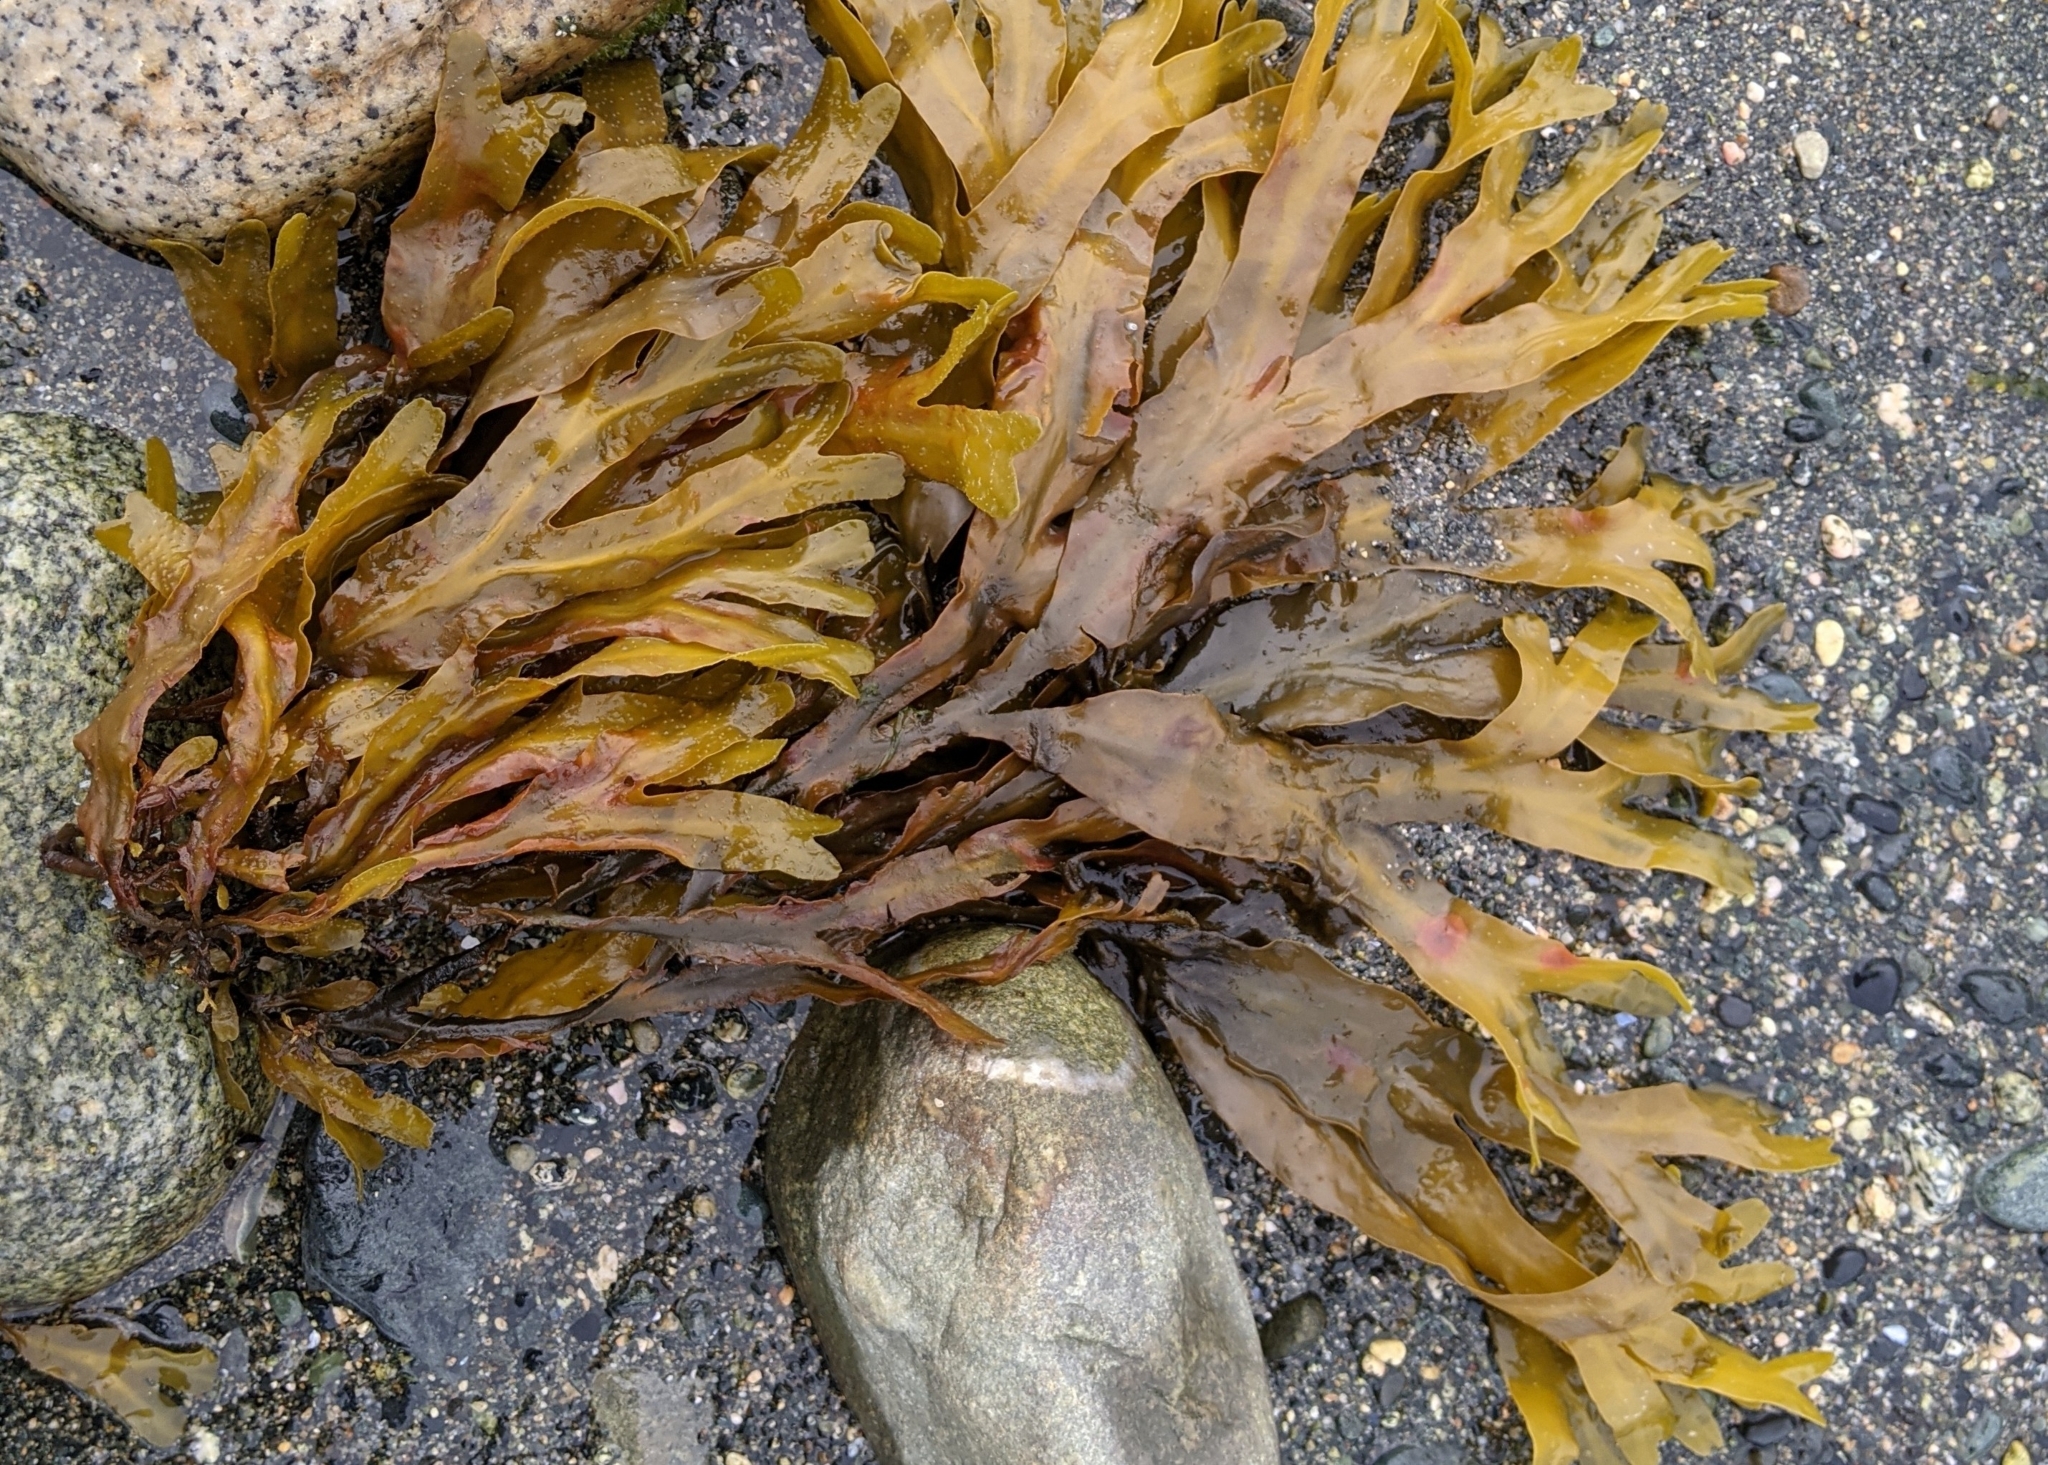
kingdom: Chromista
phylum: Ochrophyta
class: Phaeophyceae
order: Fucales
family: Fucaceae
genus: Fucus
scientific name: Fucus distichus
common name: Rockweed
